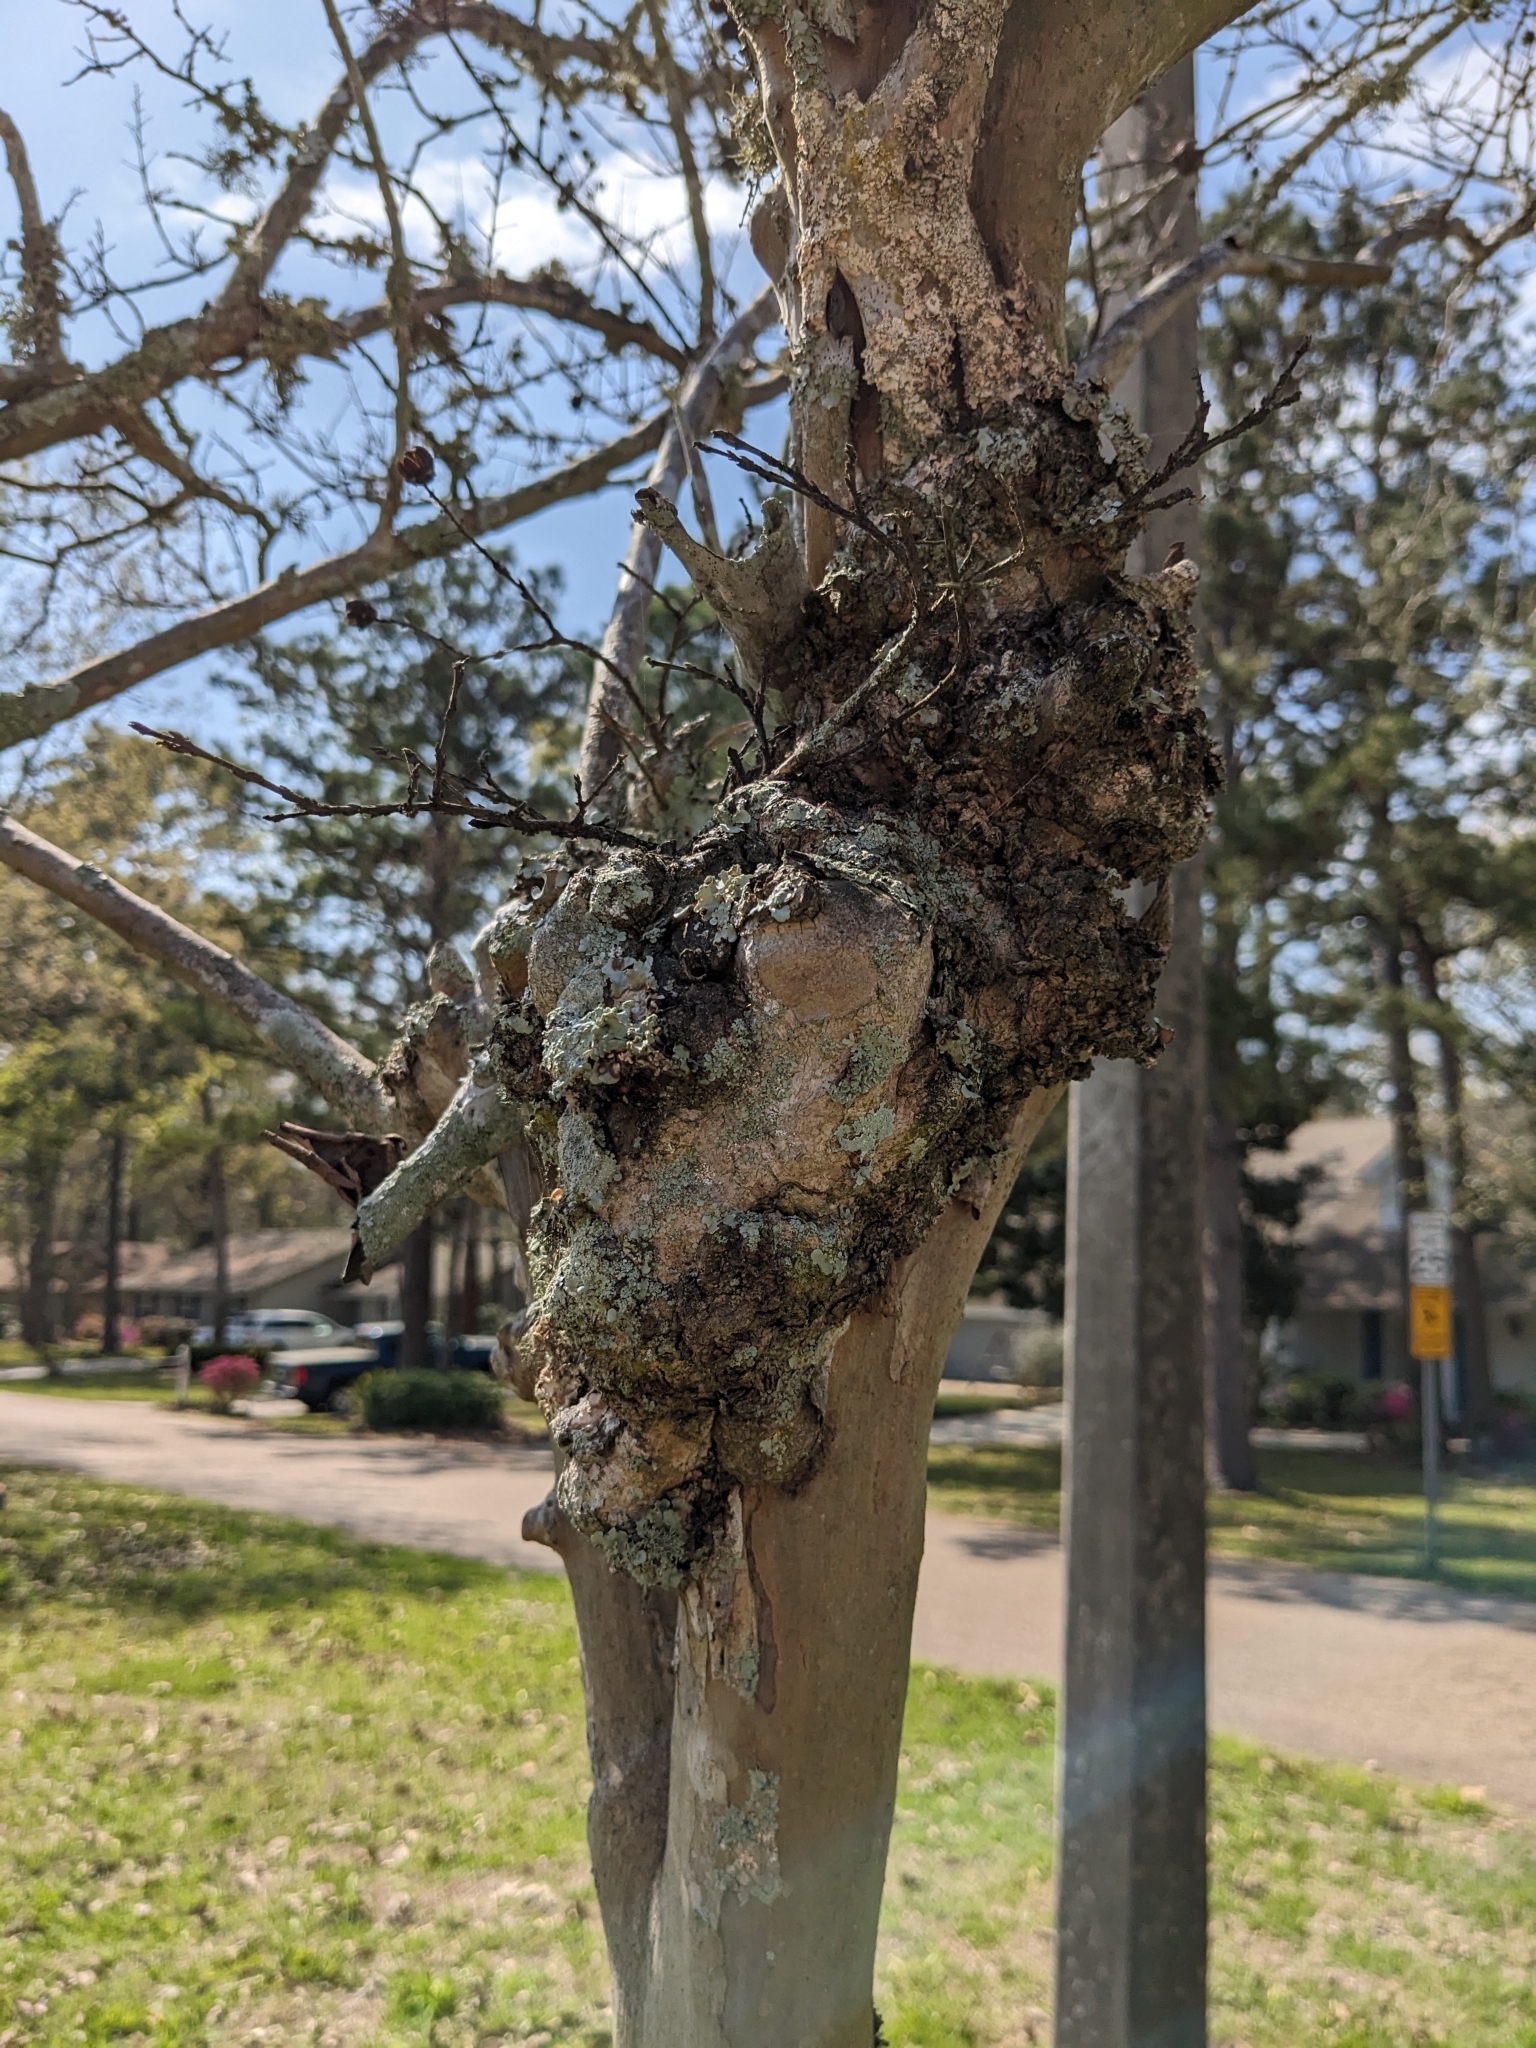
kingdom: Bacteria
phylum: Proteobacteria
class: Alphaproteobacteria
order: Rhizobiales
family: Rhizobiaceae
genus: Rhizobium
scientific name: Rhizobium Agrobacterium radiobacter
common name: Bacterial crown gall
